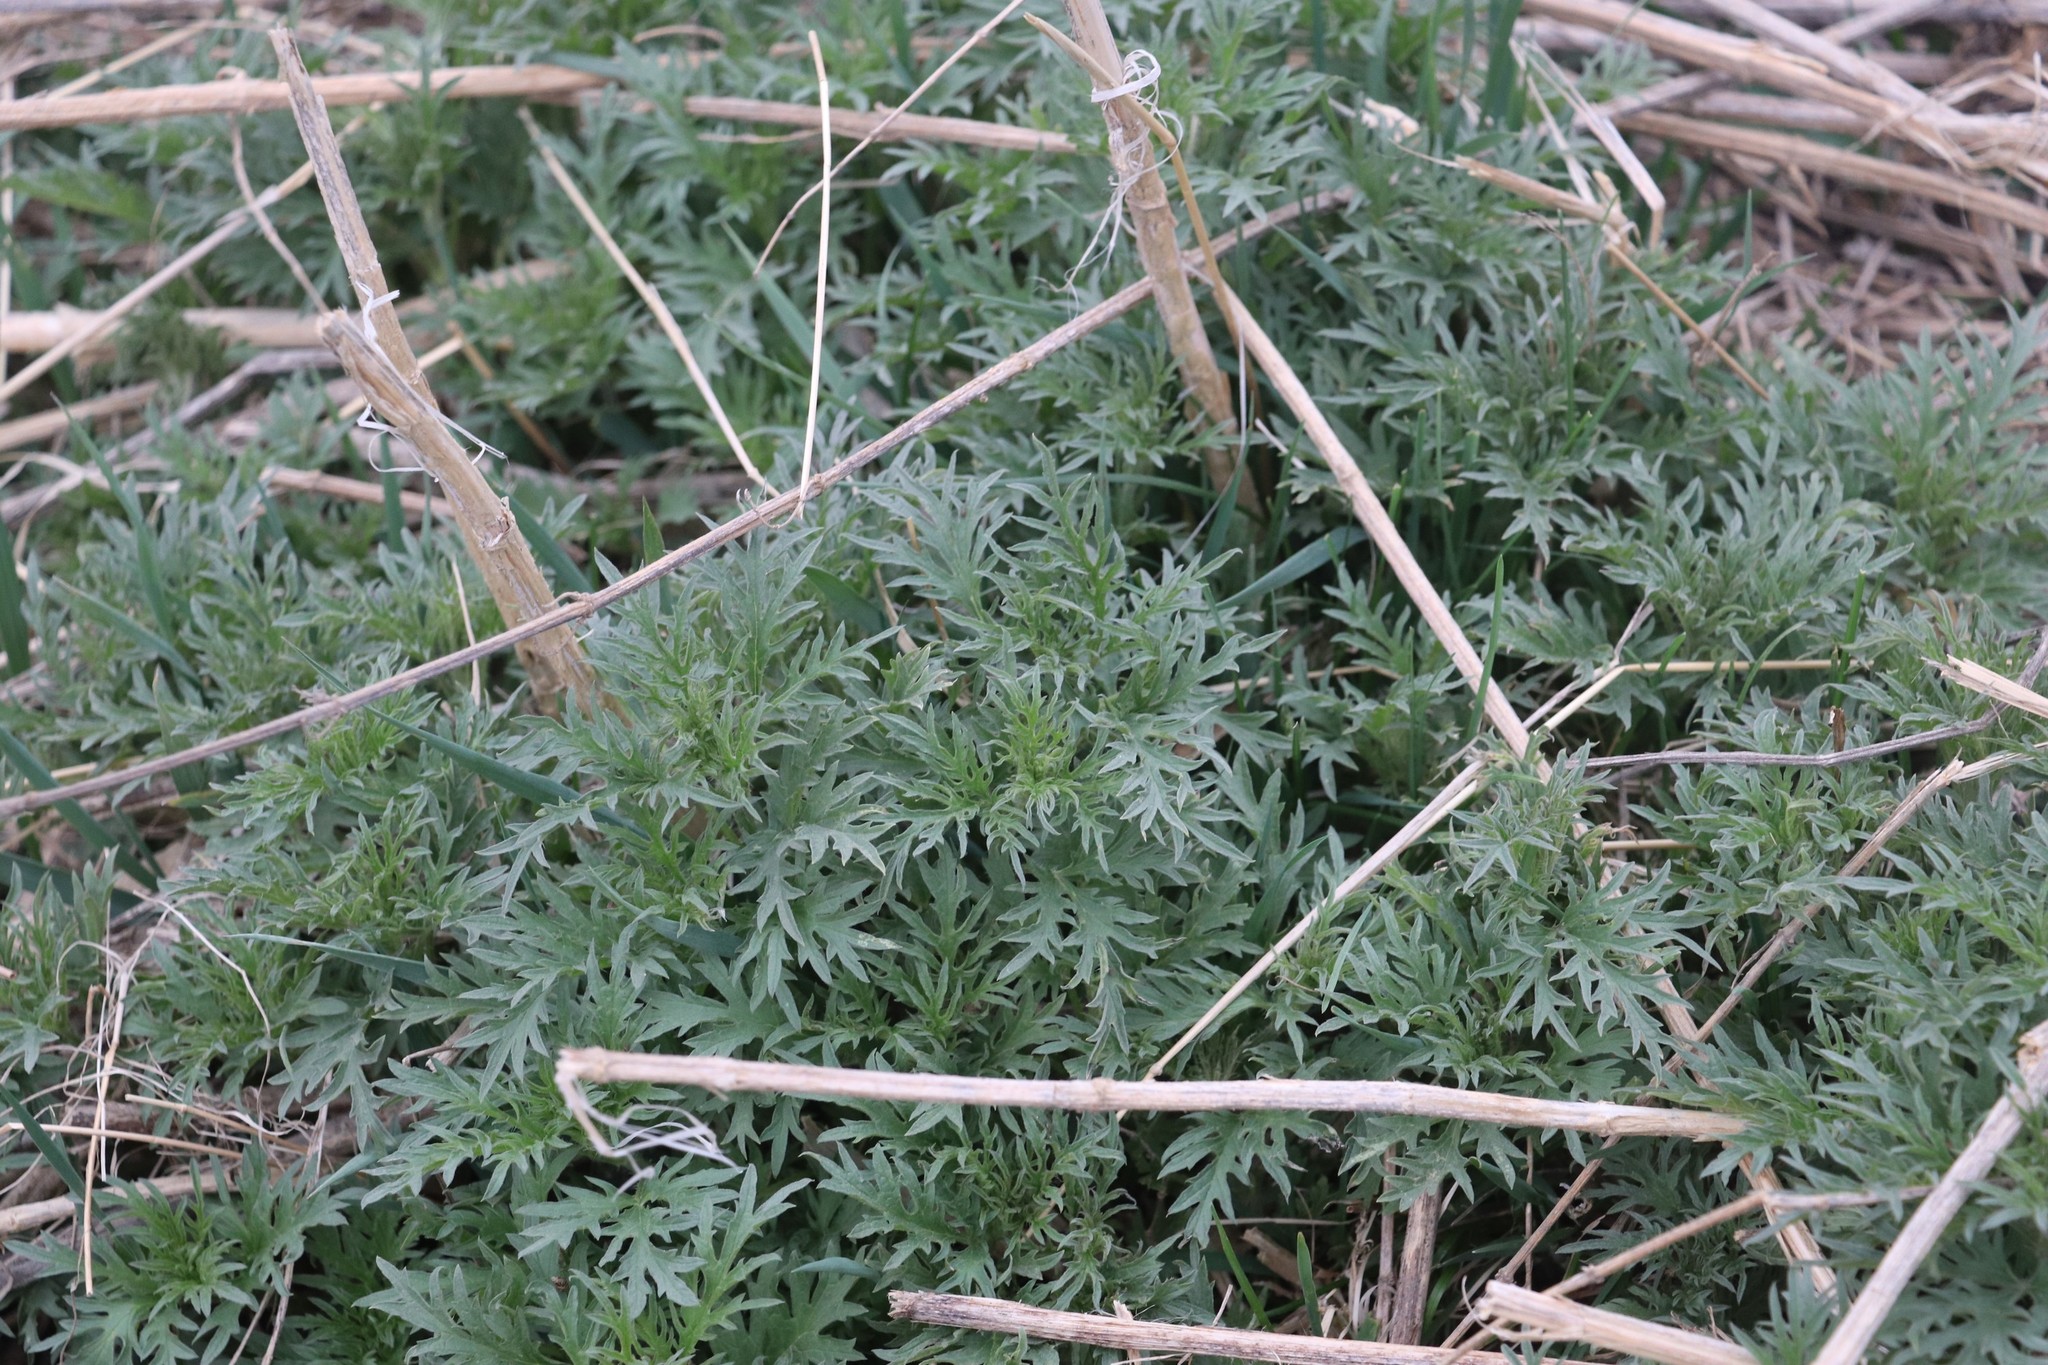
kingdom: Plantae
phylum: Tracheophyta
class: Magnoliopsida
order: Rosales
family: Urticaceae
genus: Urtica
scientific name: Urtica cannabina
